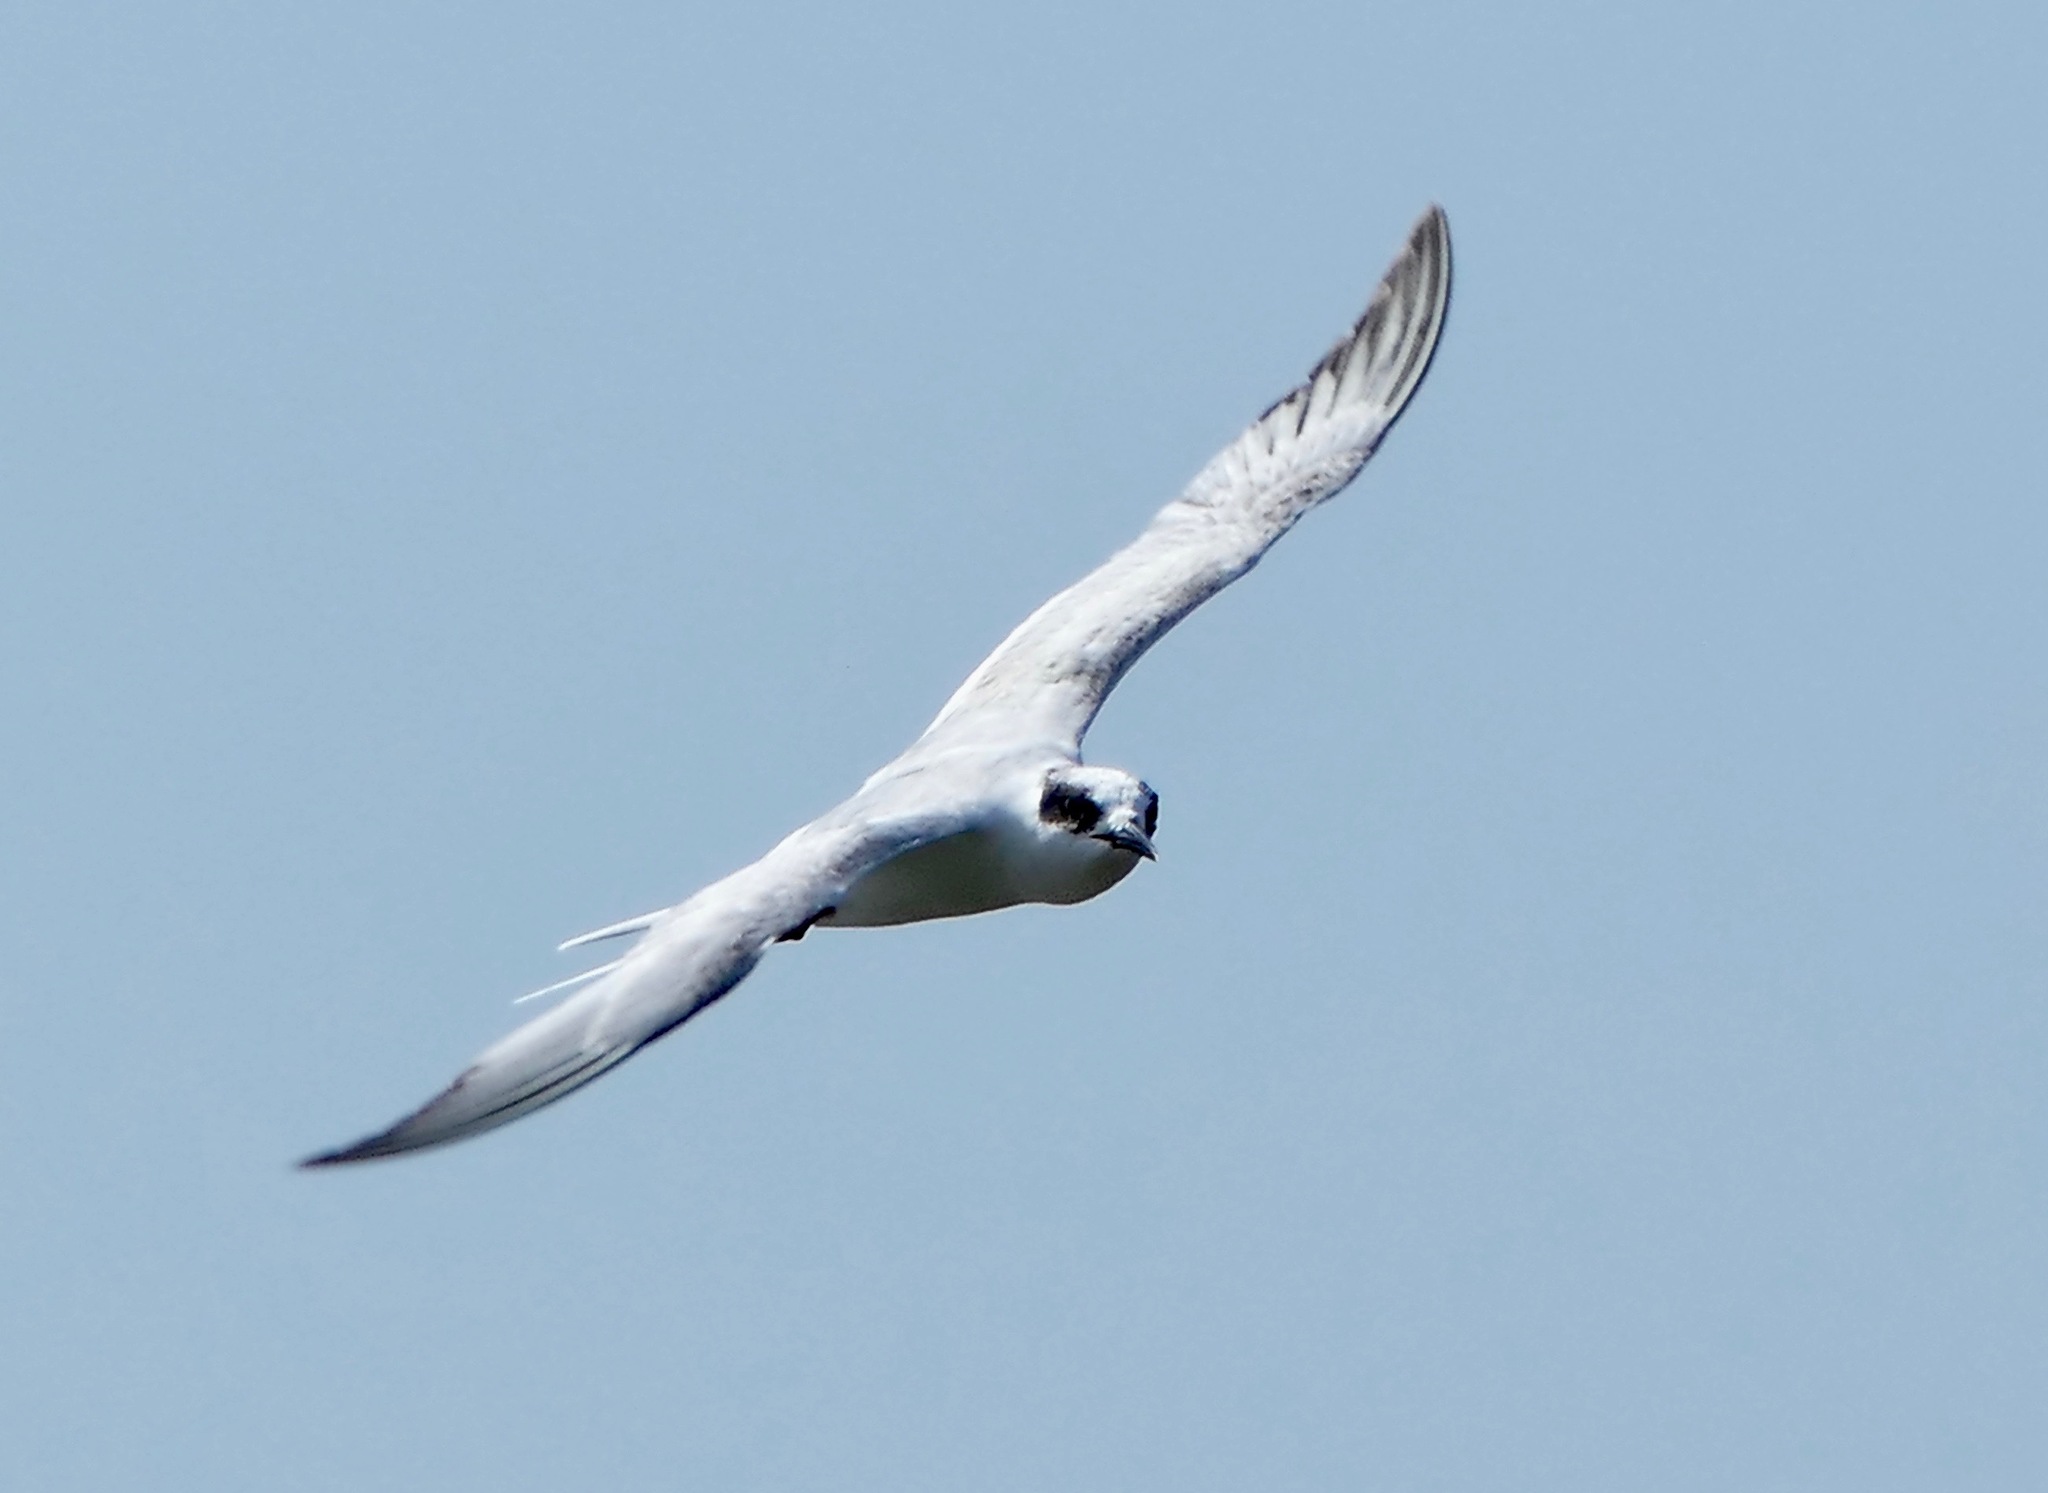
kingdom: Animalia
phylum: Chordata
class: Aves
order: Charadriiformes
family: Laridae
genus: Sterna
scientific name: Sterna forsteri
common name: Forster's tern
